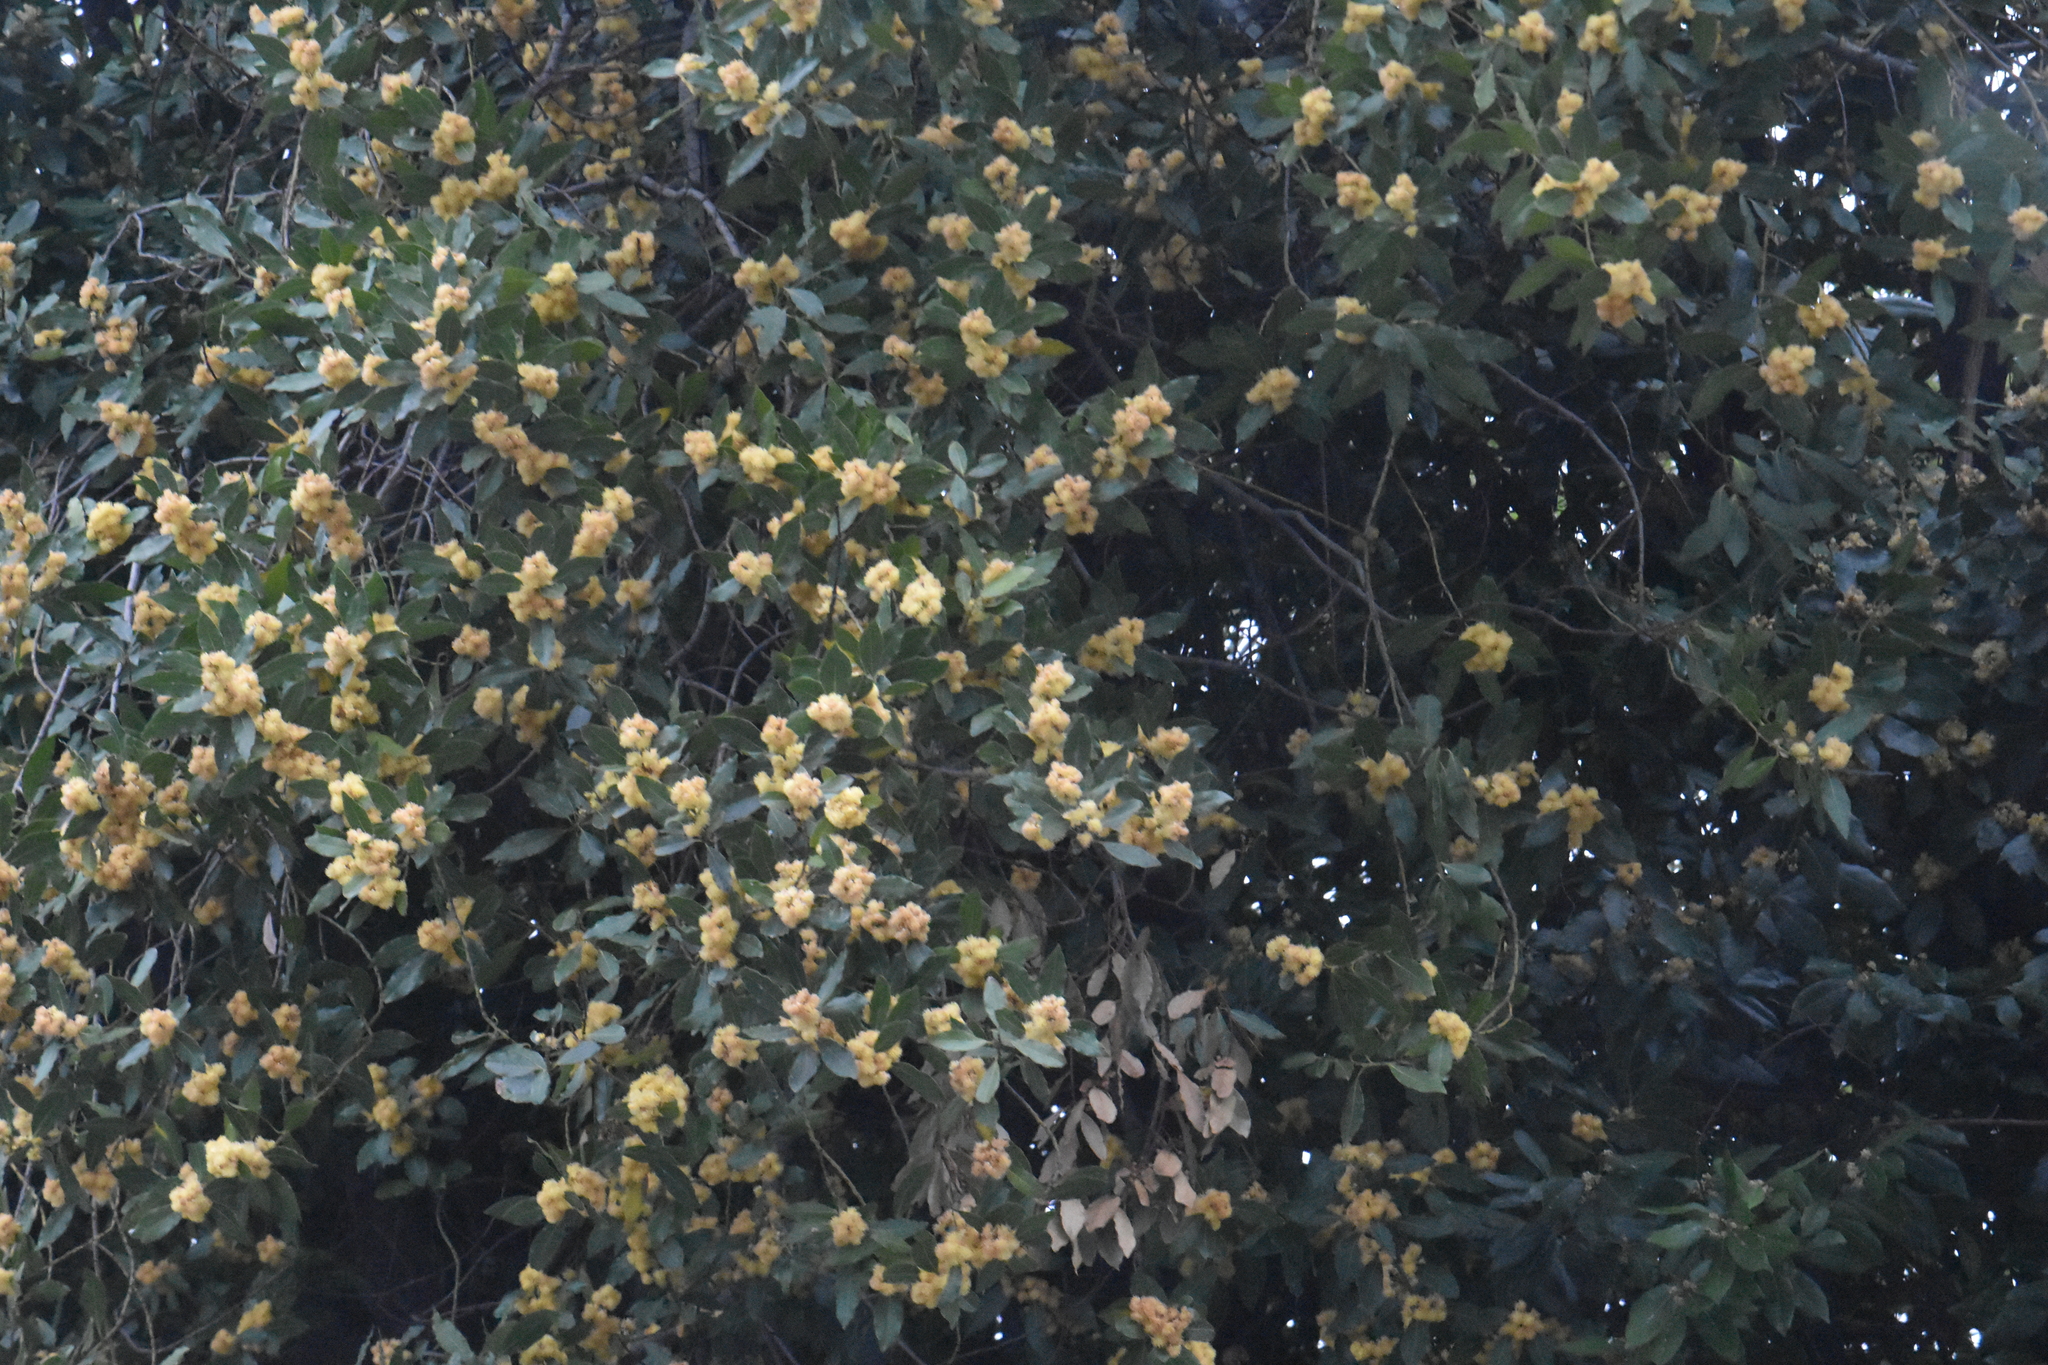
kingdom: Plantae
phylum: Tracheophyta
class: Magnoliopsida
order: Laurales
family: Lauraceae
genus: Laurus
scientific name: Laurus nobilis
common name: Bay
